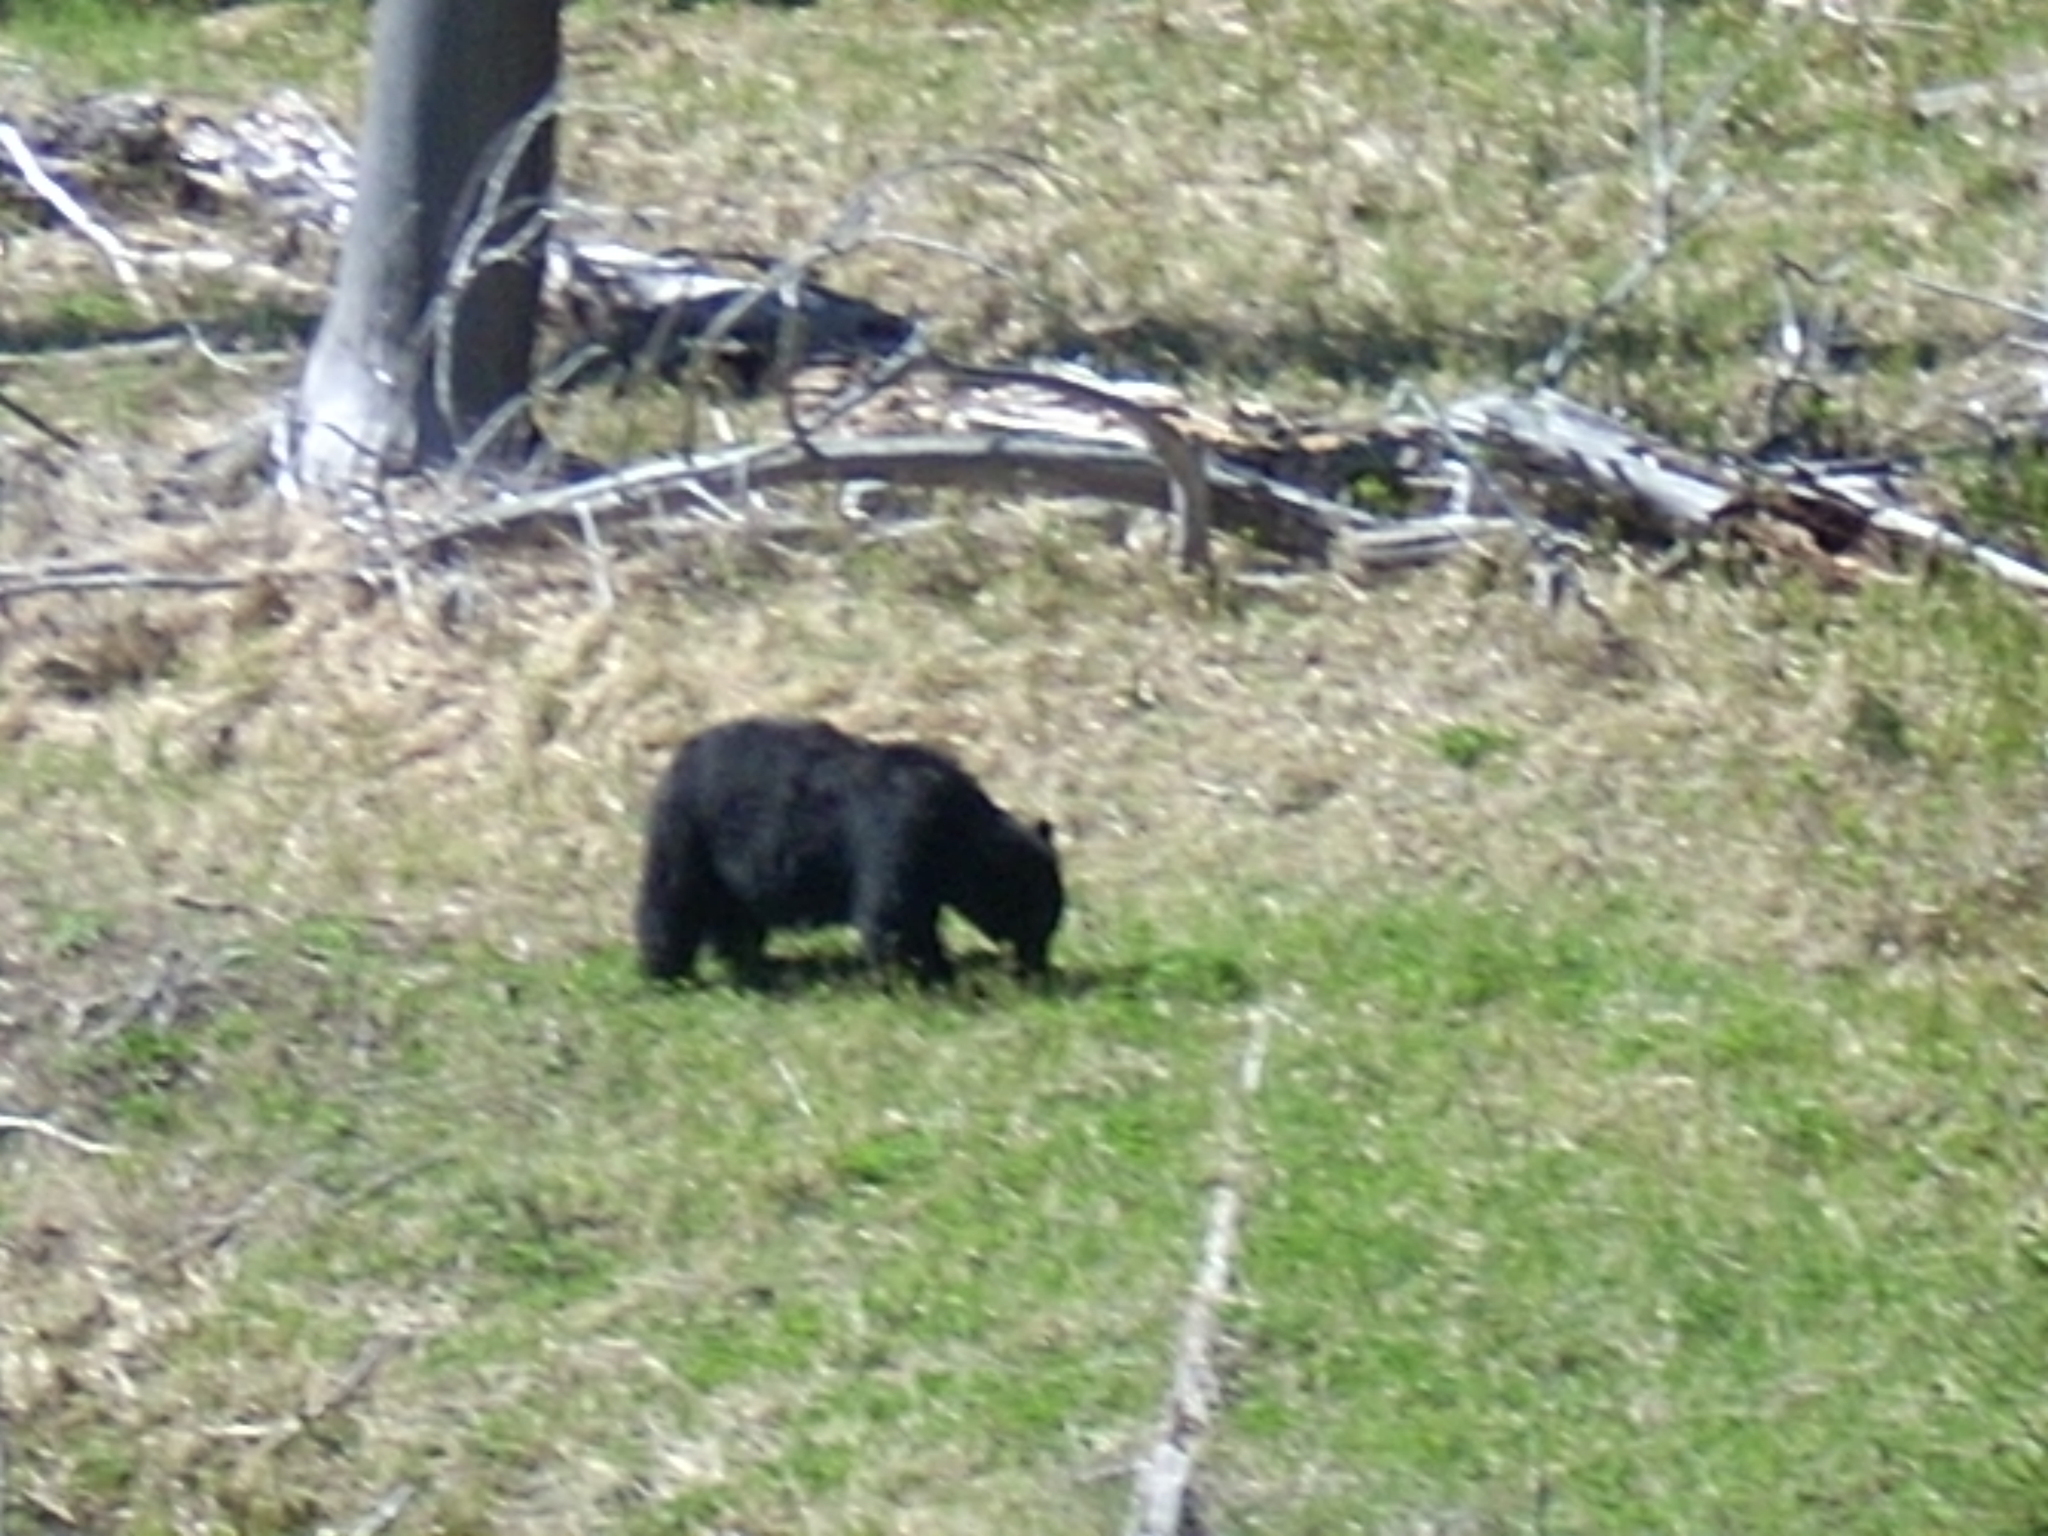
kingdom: Animalia
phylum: Chordata
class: Mammalia
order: Carnivora
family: Ursidae
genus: Ursus
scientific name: Ursus americanus
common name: American black bear
